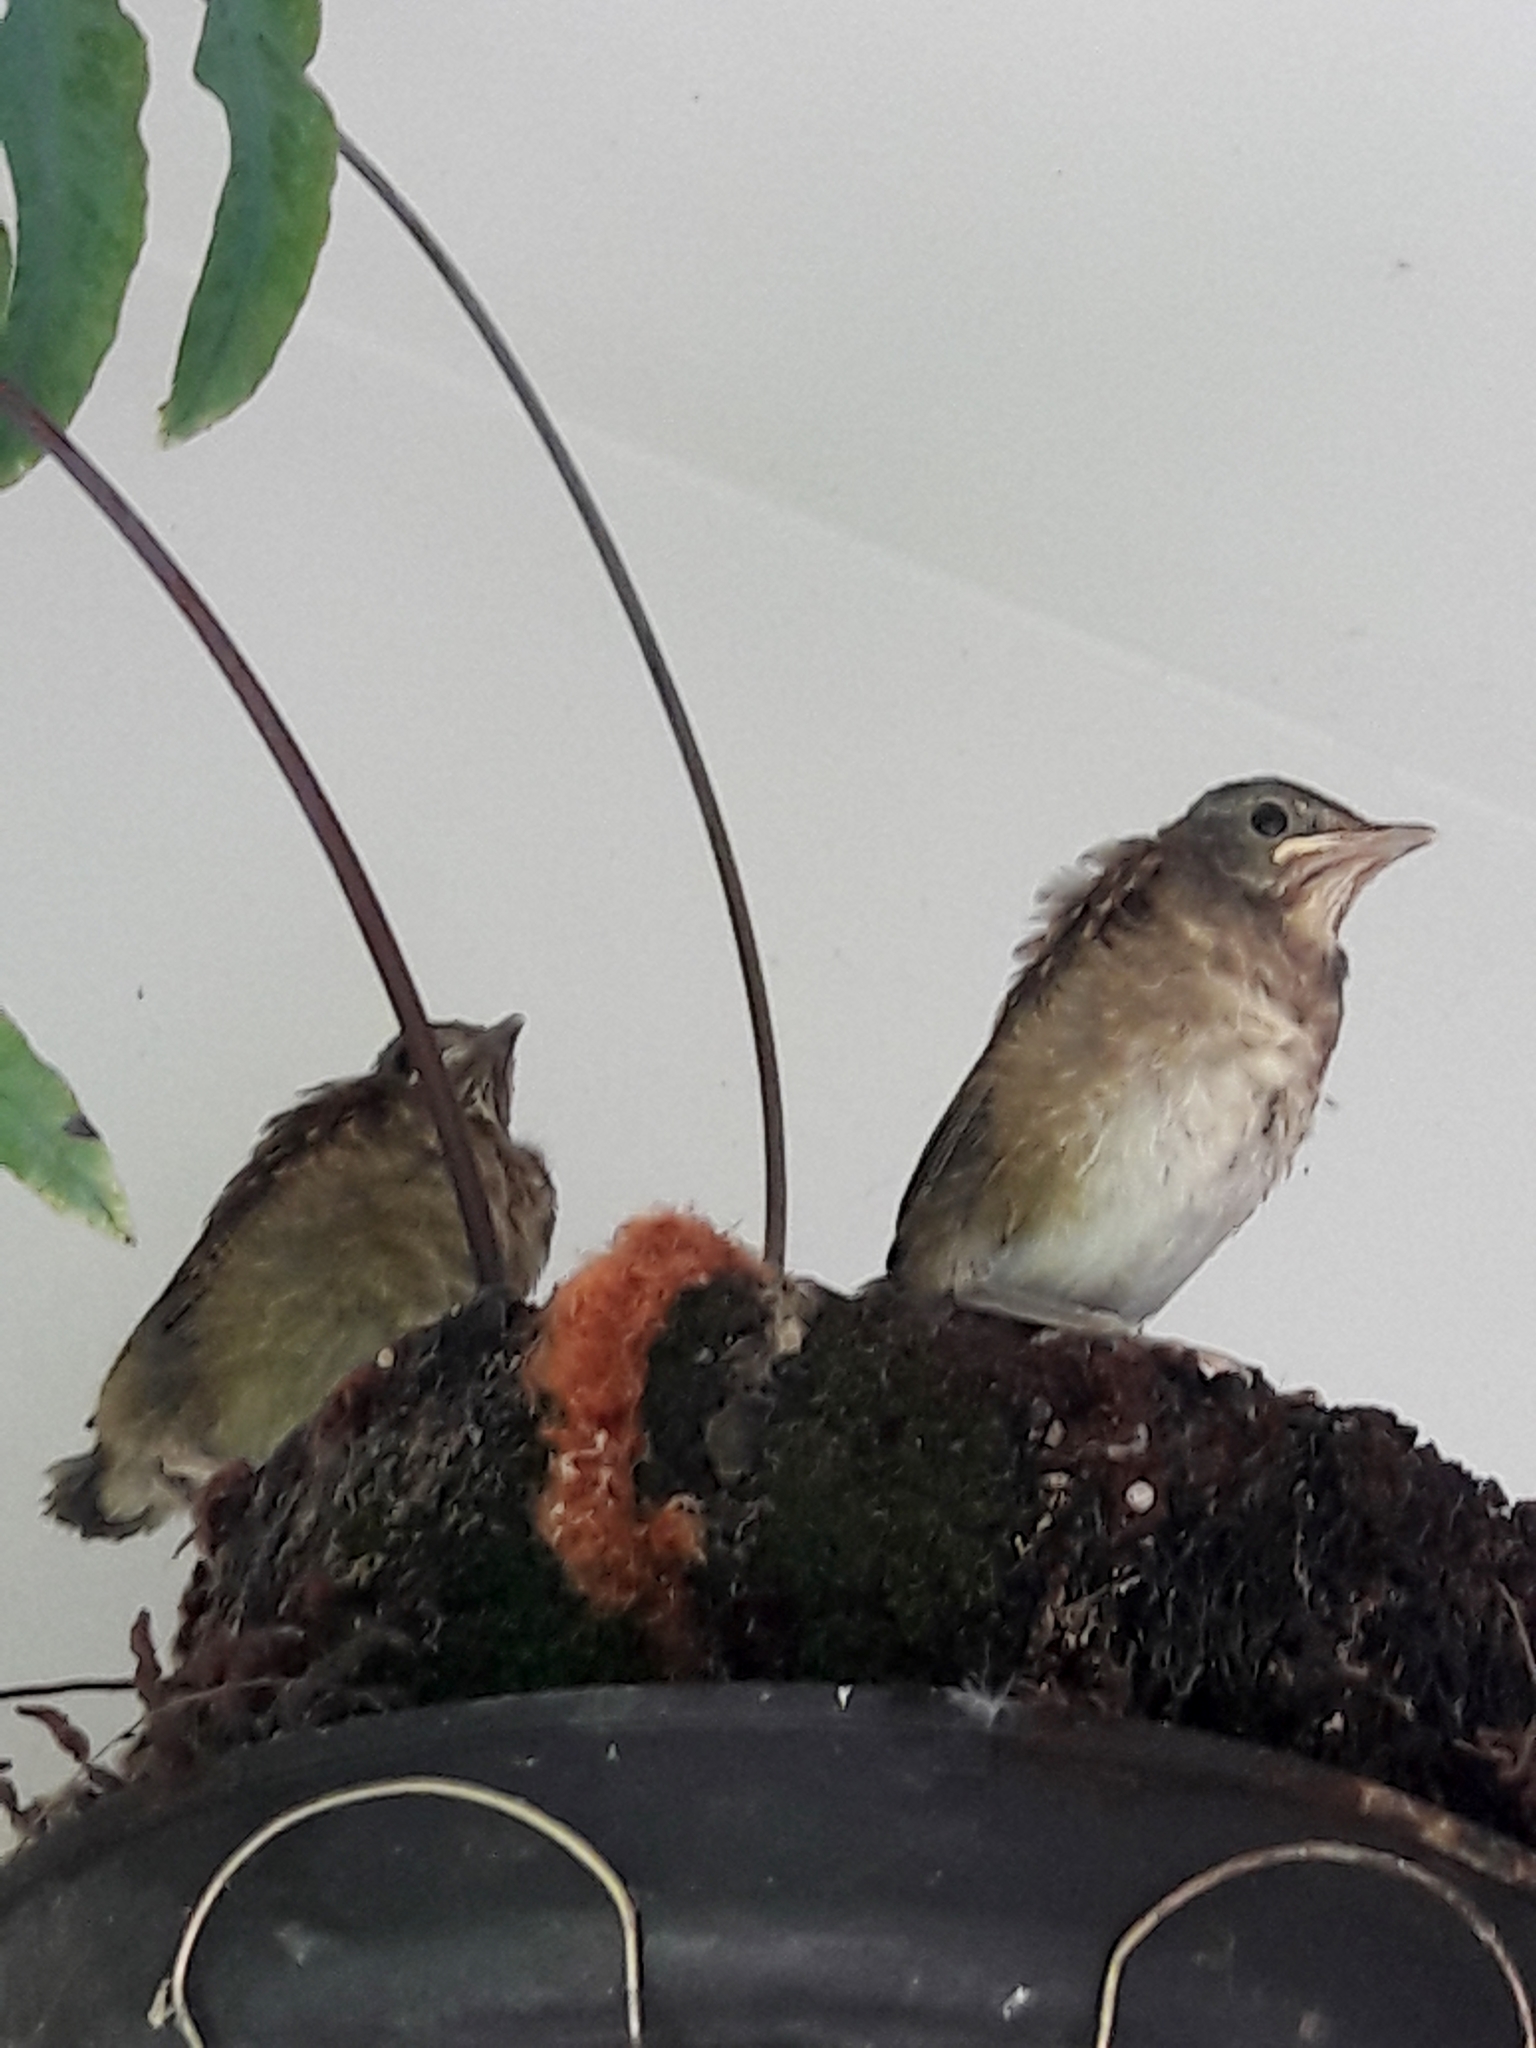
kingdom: Animalia
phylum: Chordata
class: Aves
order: Passeriformes
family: Turdidae
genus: Turdus
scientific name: Turdus leucomelas
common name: Pale-breasted thrush
